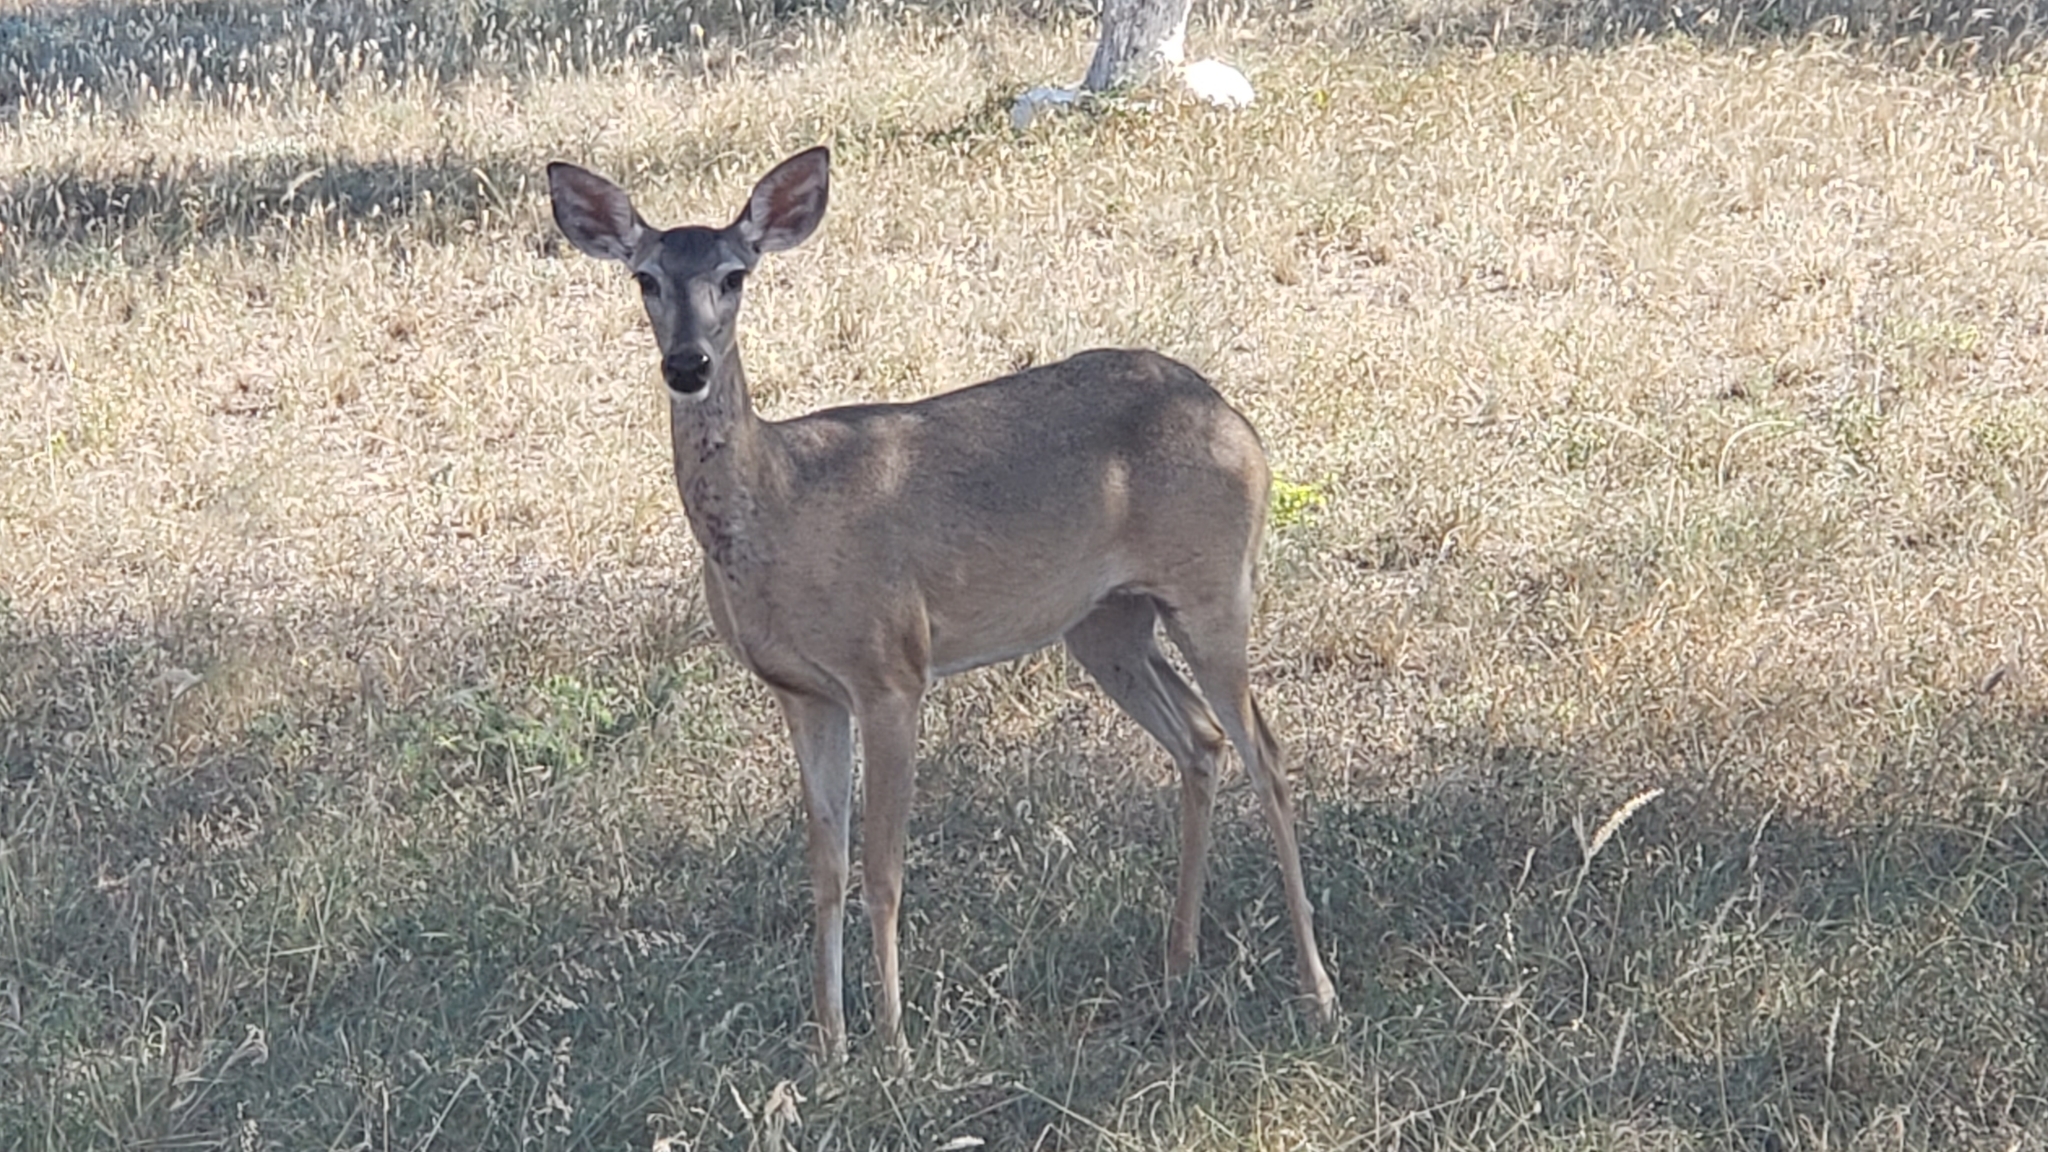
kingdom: Animalia
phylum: Chordata
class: Mammalia
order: Artiodactyla
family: Cervidae
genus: Odocoileus
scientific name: Odocoileus virginianus
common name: White-tailed deer
